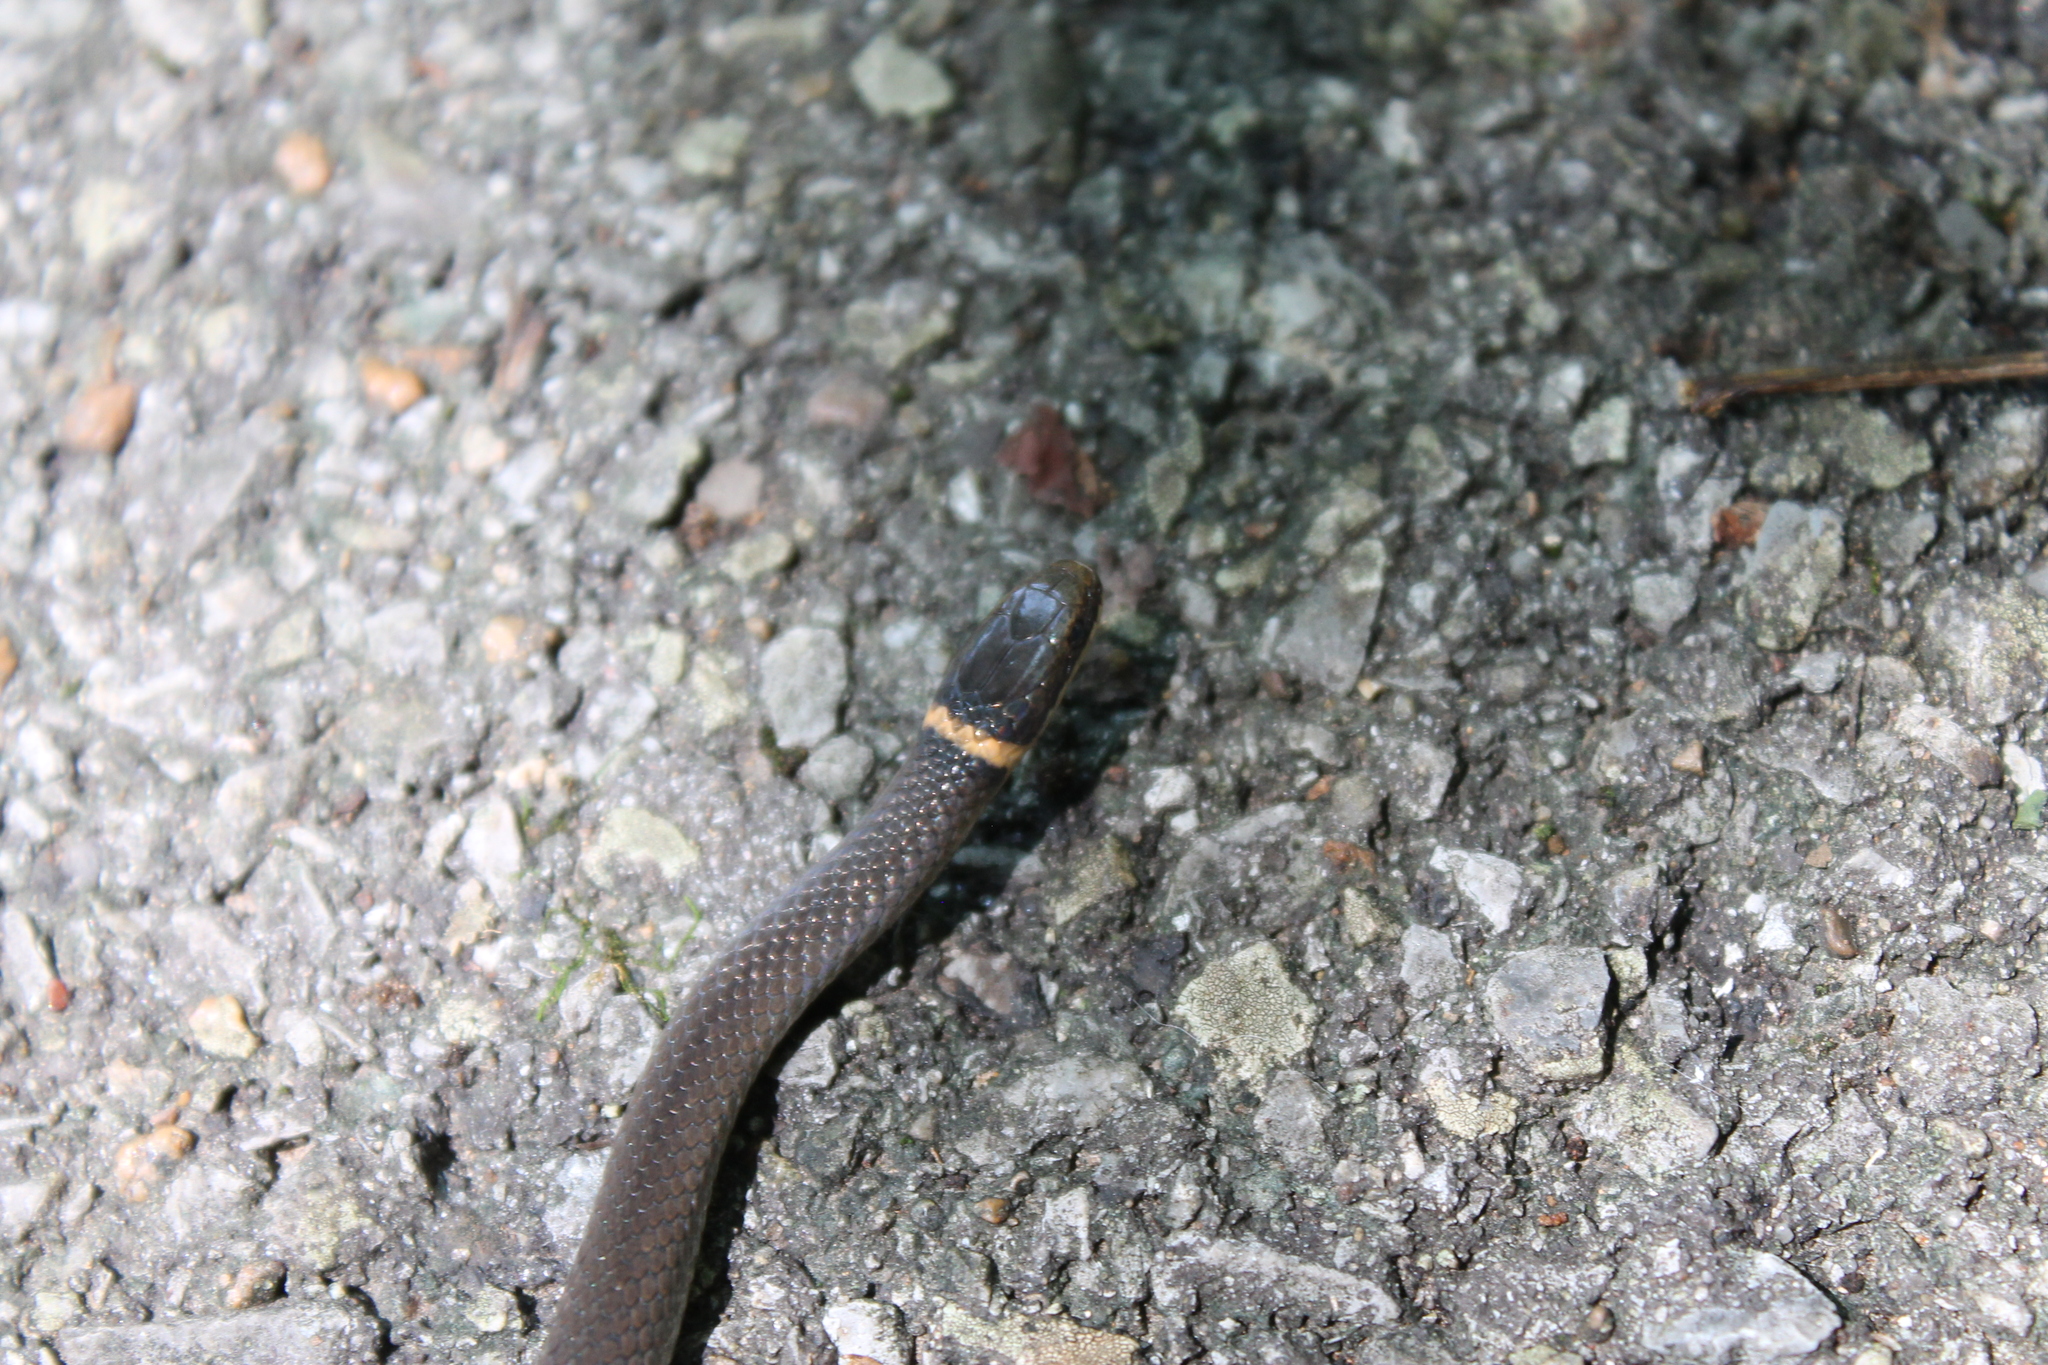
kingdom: Animalia
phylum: Chordata
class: Squamata
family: Colubridae
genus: Diadophis
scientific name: Diadophis punctatus
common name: Ringneck snake
